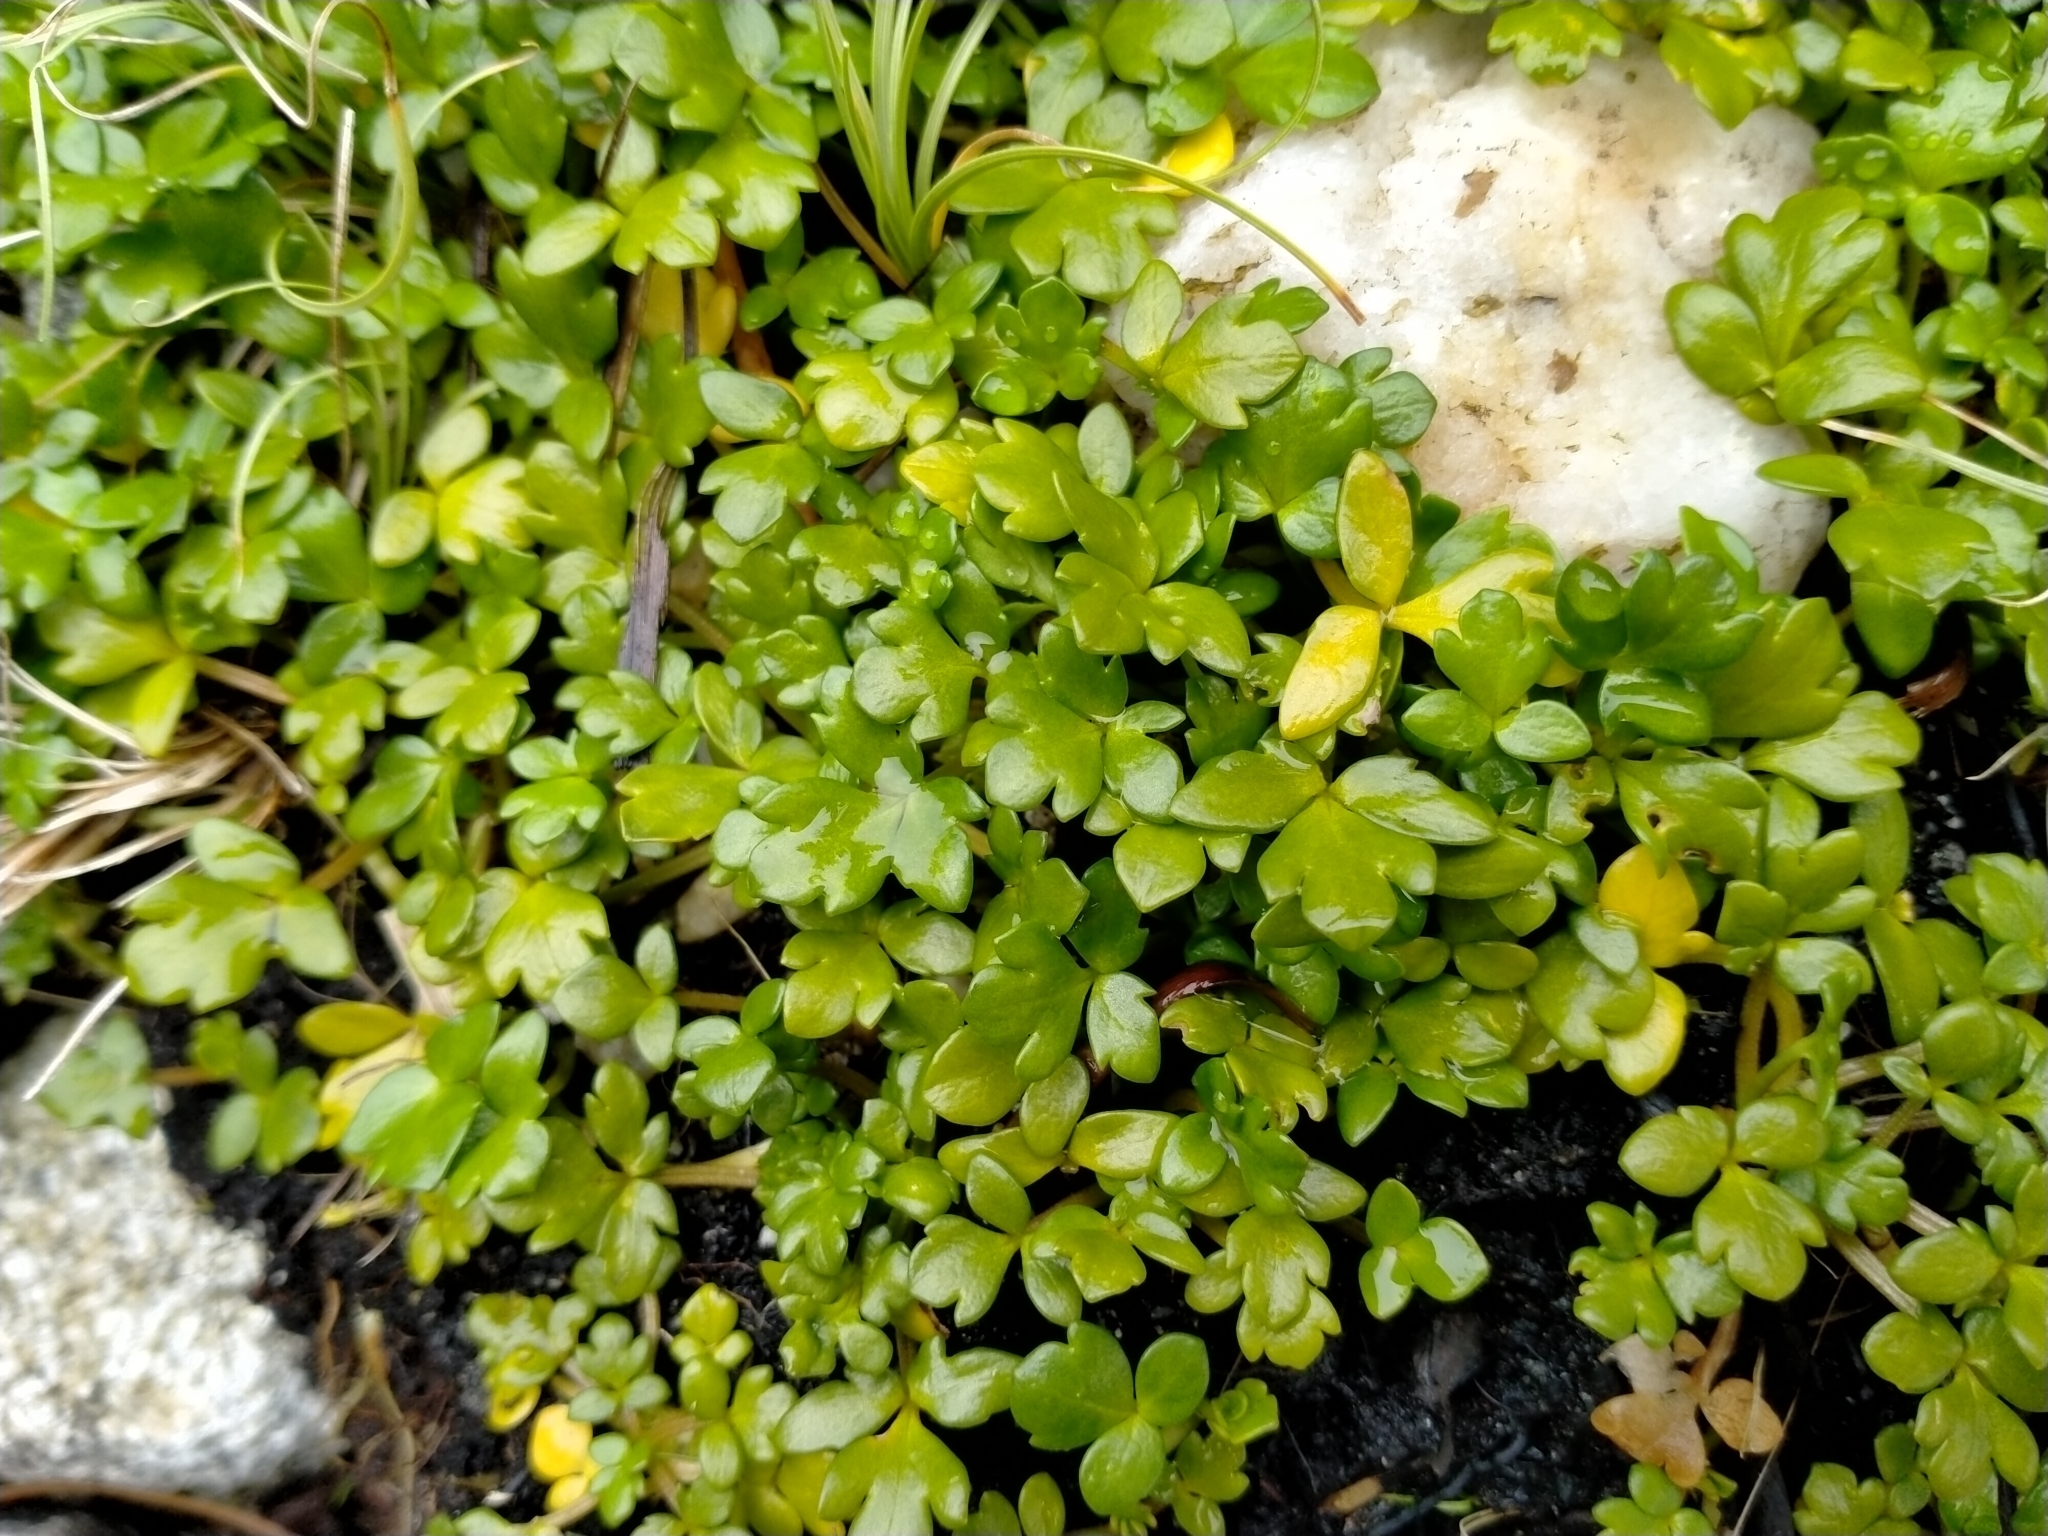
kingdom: Plantae
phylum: Tracheophyta
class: Magnoliopsida
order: Ranunculales
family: Ranunculaceae
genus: Ranunculus
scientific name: Ranunculus acaulis
